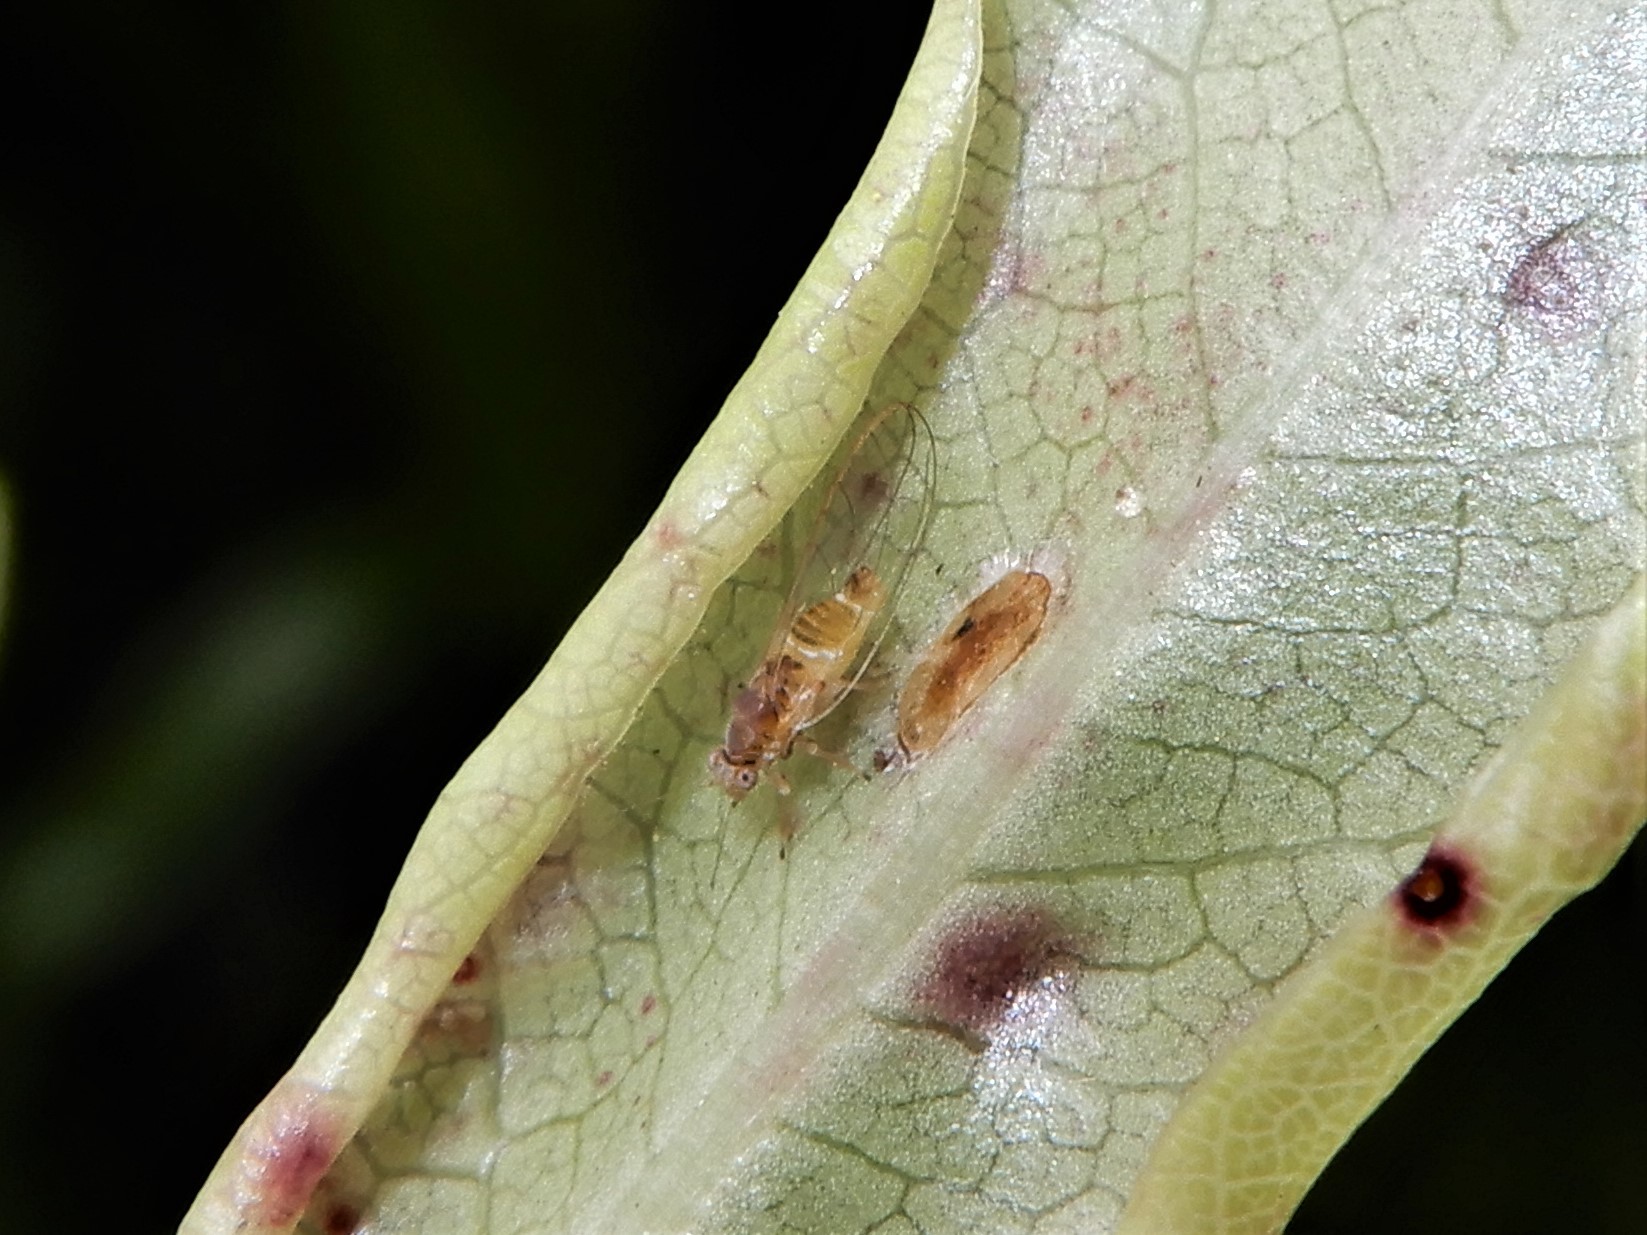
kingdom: Animalia
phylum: Arthropoda
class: Insecta
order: Hemiptera
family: Triozidae
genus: Powellia
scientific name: Powellia vitreoradiata
